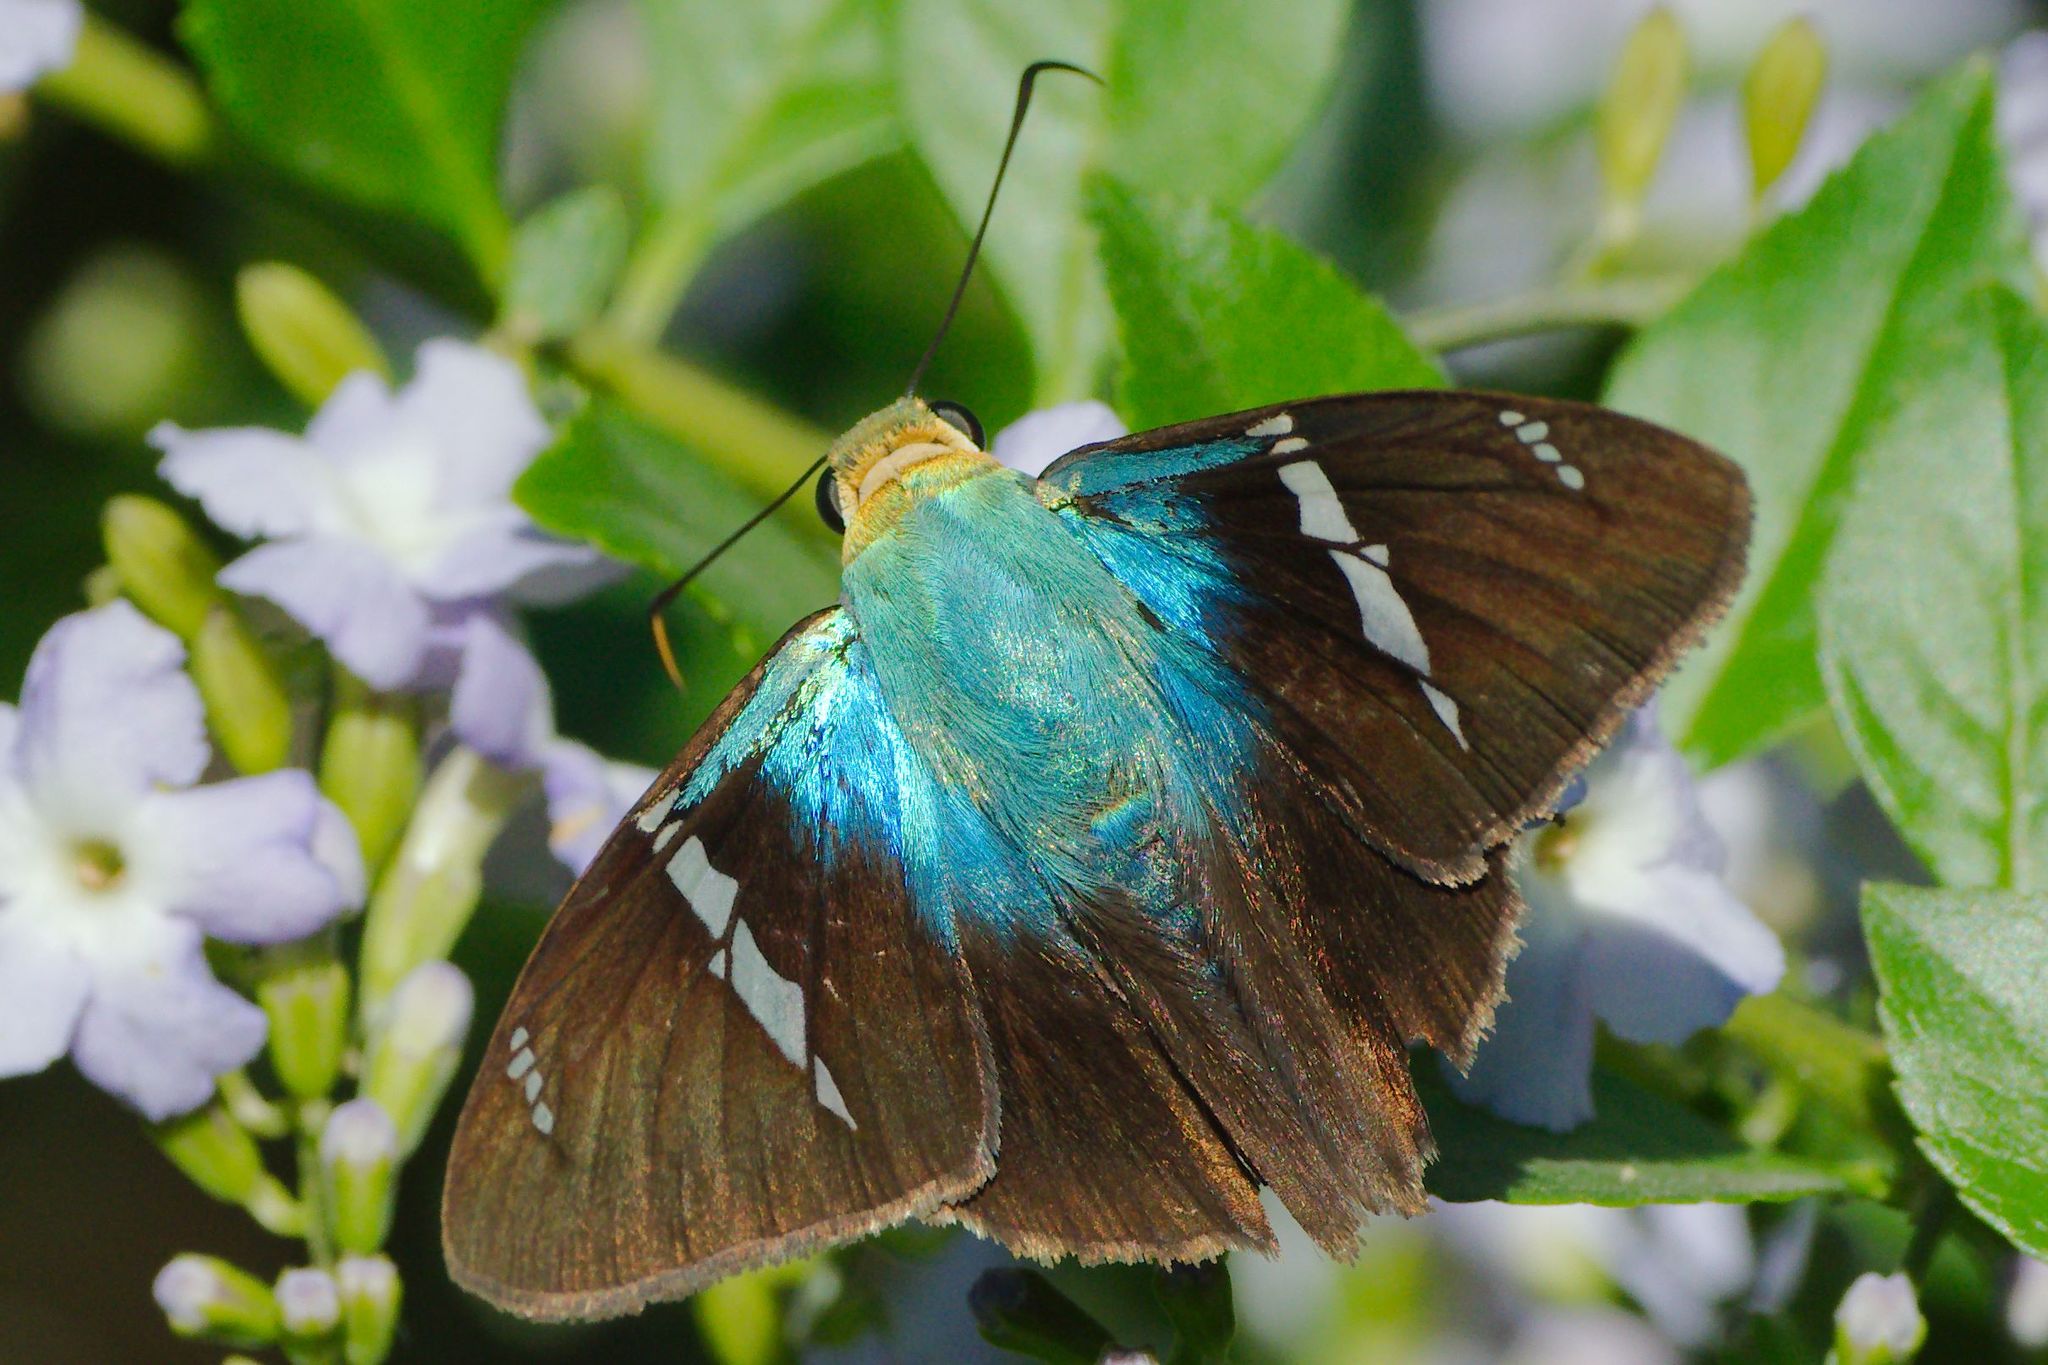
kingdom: Animalia
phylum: Arthropoda
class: Insecta
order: Lepidoptera
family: Hesperiidae
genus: Astraptes
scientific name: Astraptes fulgerator
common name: Two-barred flasher
